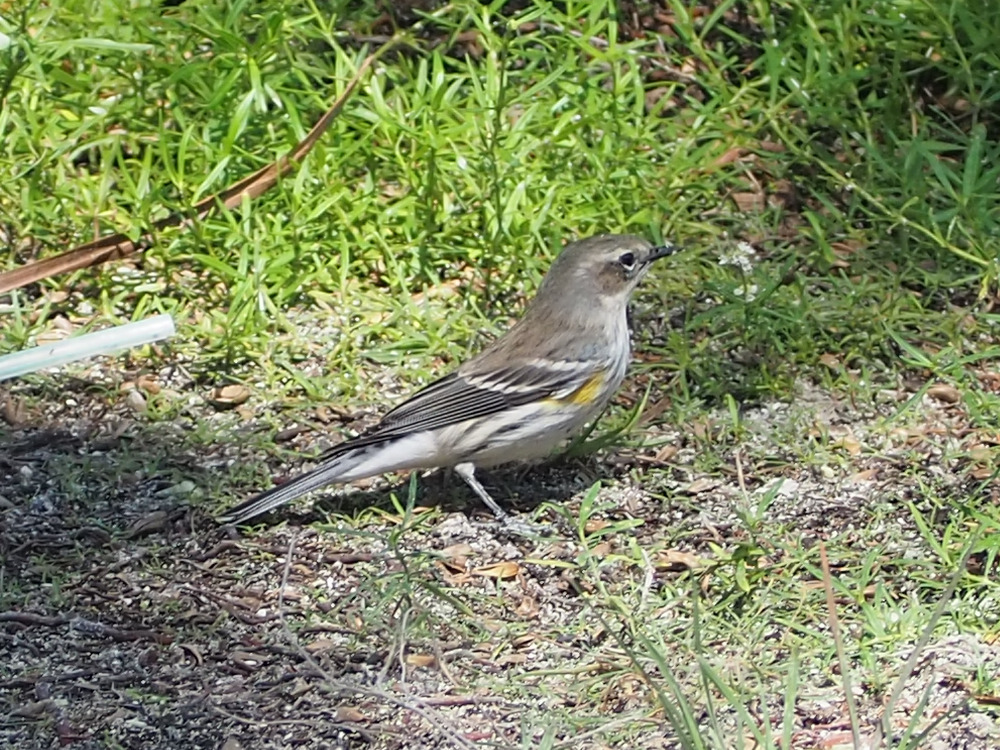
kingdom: Animalia
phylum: Chordata
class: Aves
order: Passeriformes
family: Parulidae
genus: Setophaga
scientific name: Setophaga coronata
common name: Myrtle warbler
